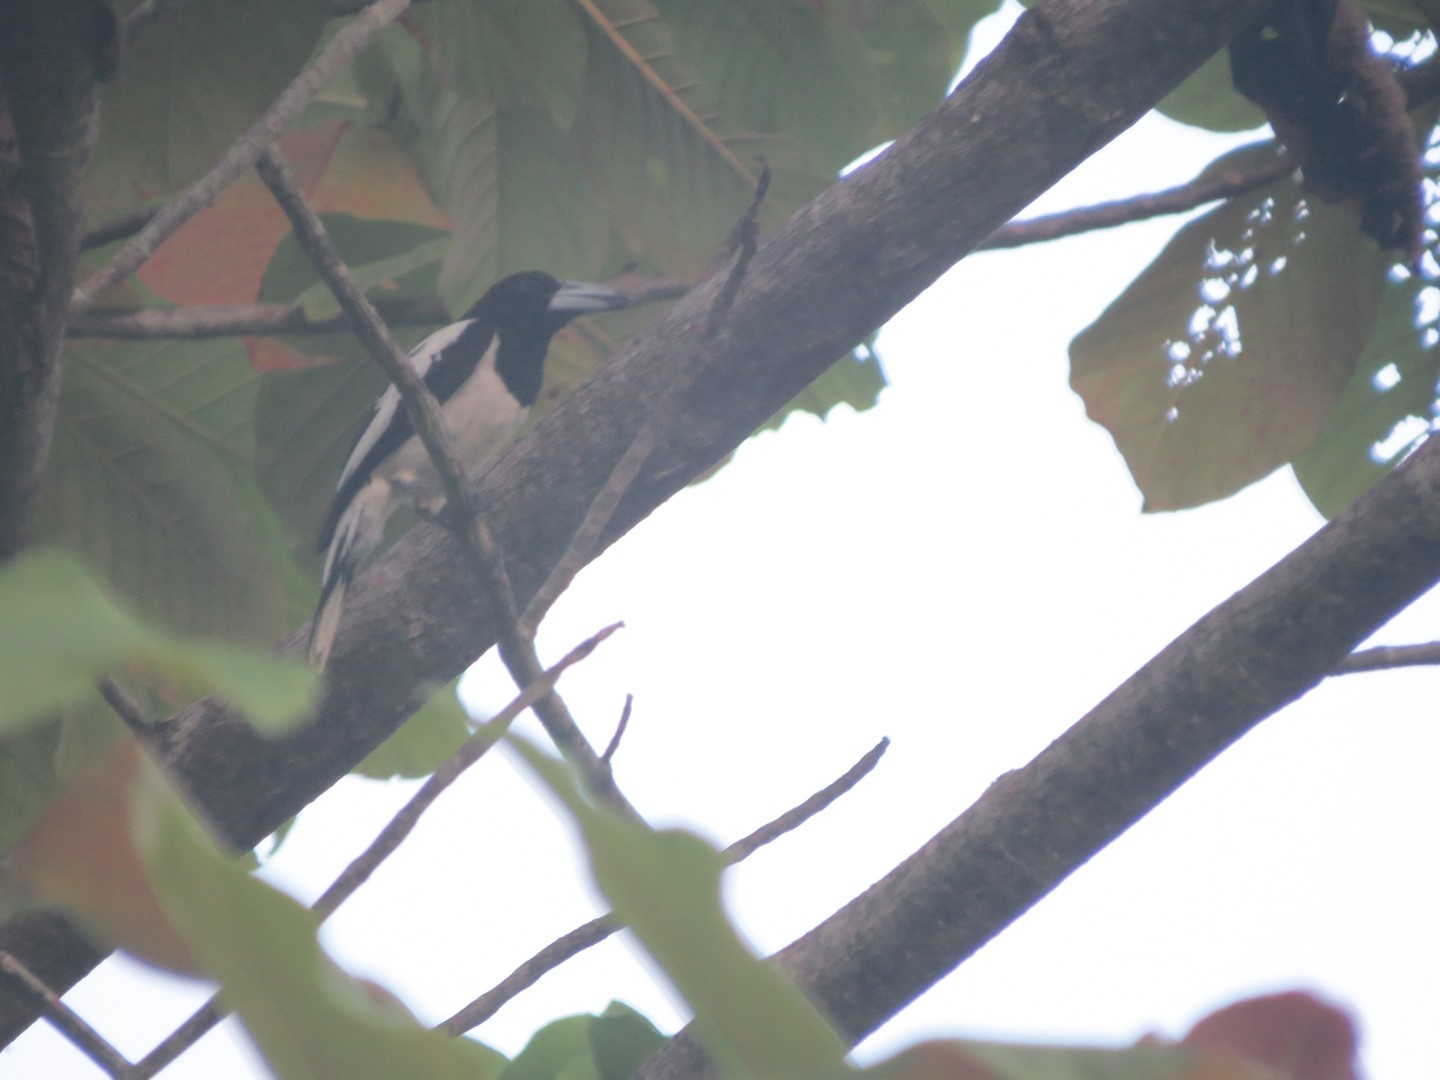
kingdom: Animalia
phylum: Chordata
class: Aves
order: Passeriformes
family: Cracticidae
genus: Cracticus
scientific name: Cracticus cassicus
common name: Hooded butcherbird
